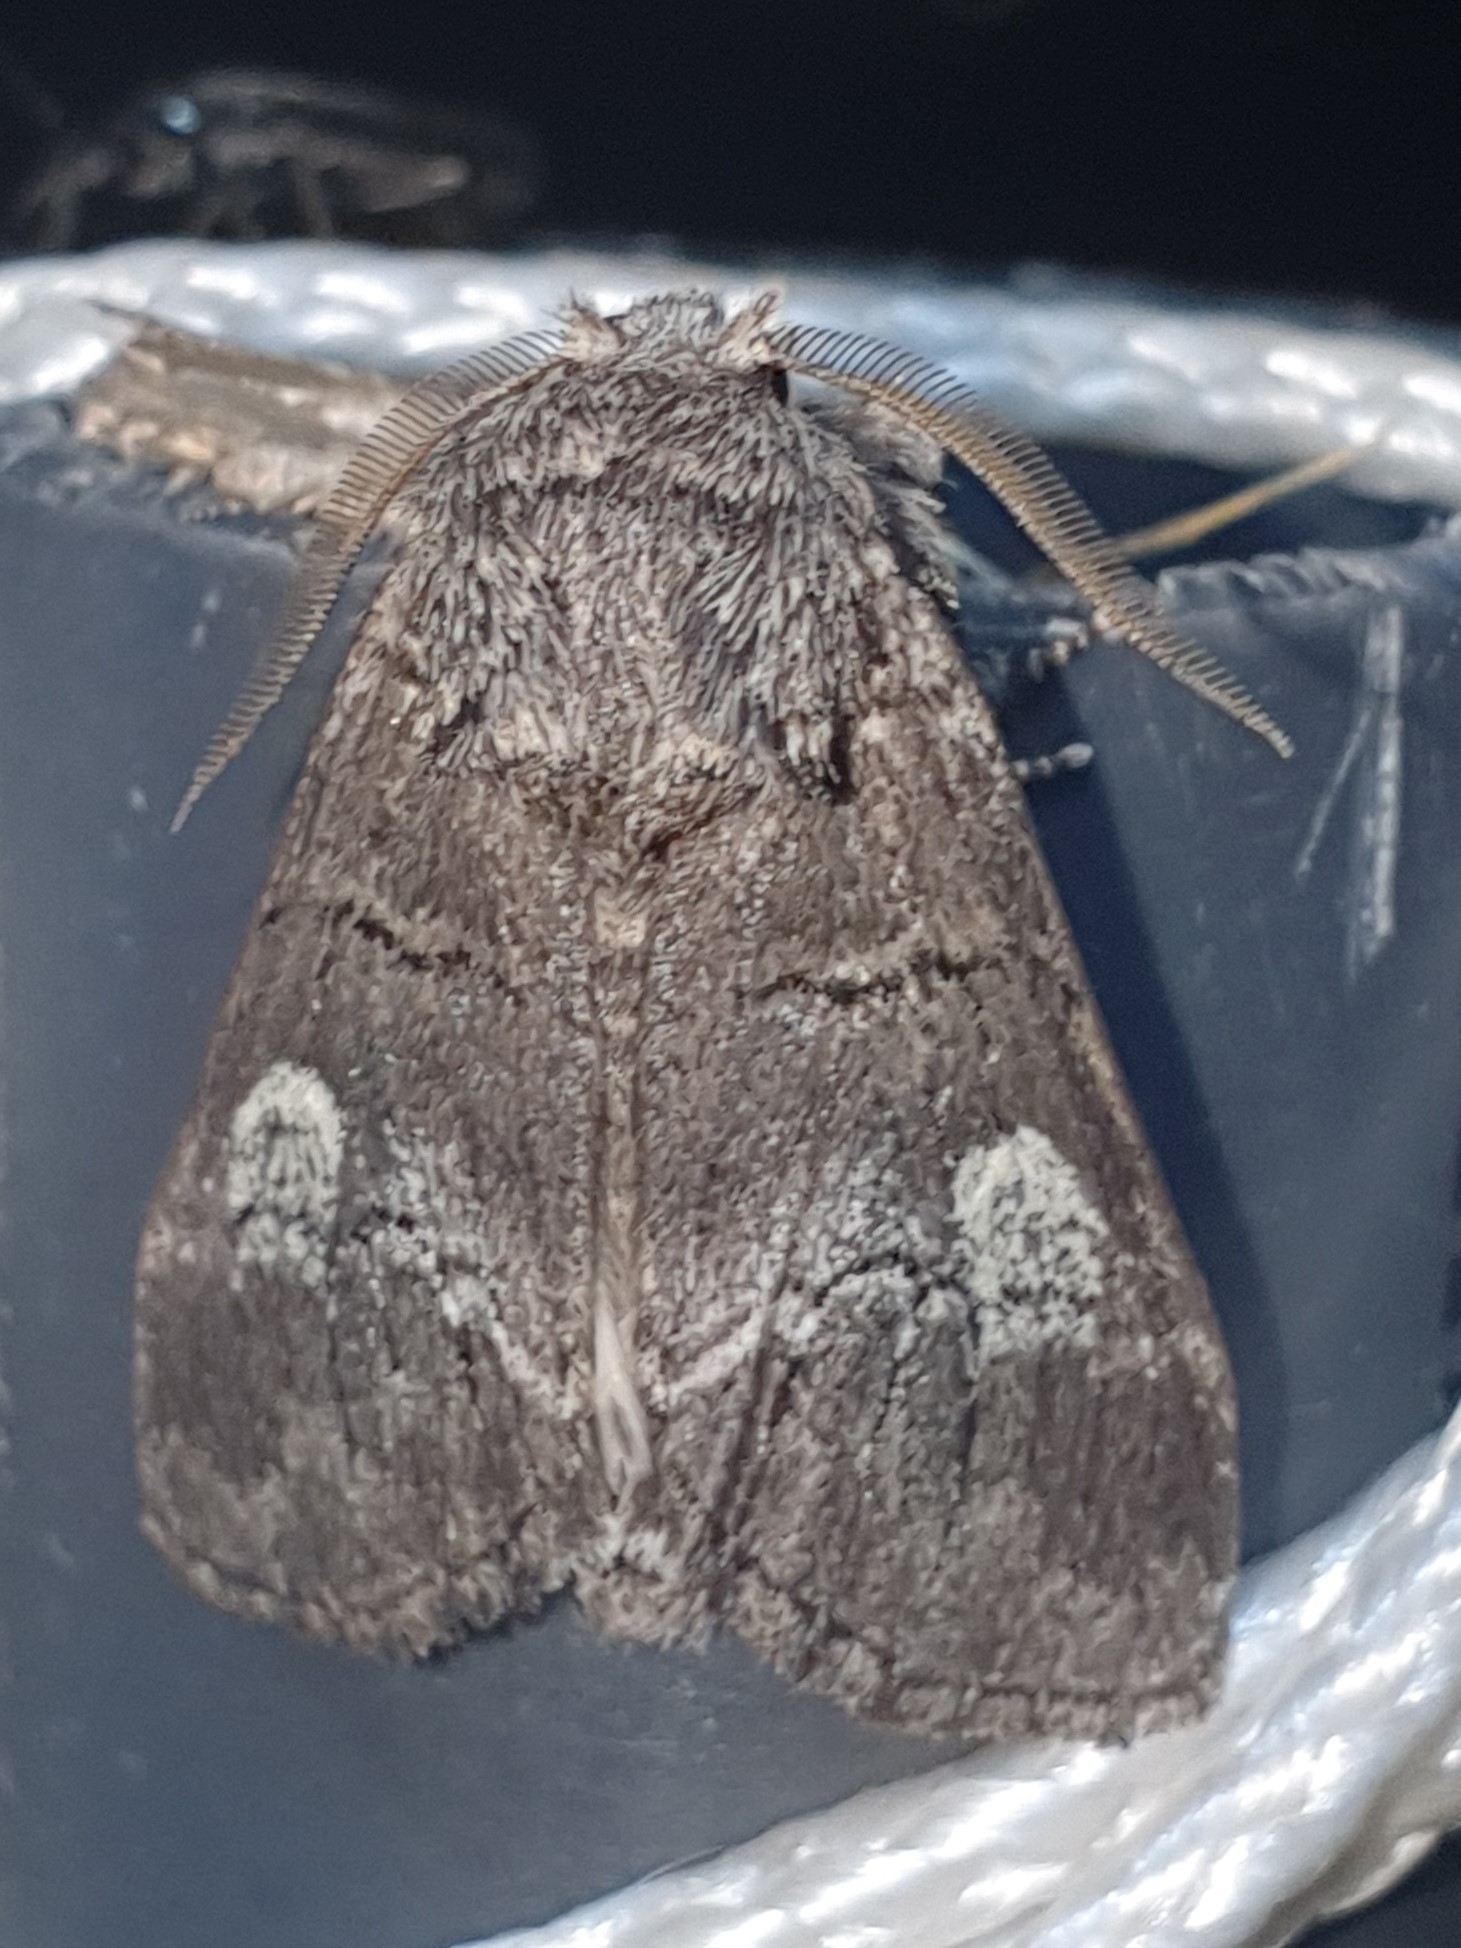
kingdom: Animalia
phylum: Arthropoda
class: Insecta
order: Lepidoptera
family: Notodontidae
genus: Drymonia
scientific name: Drymonia querna
